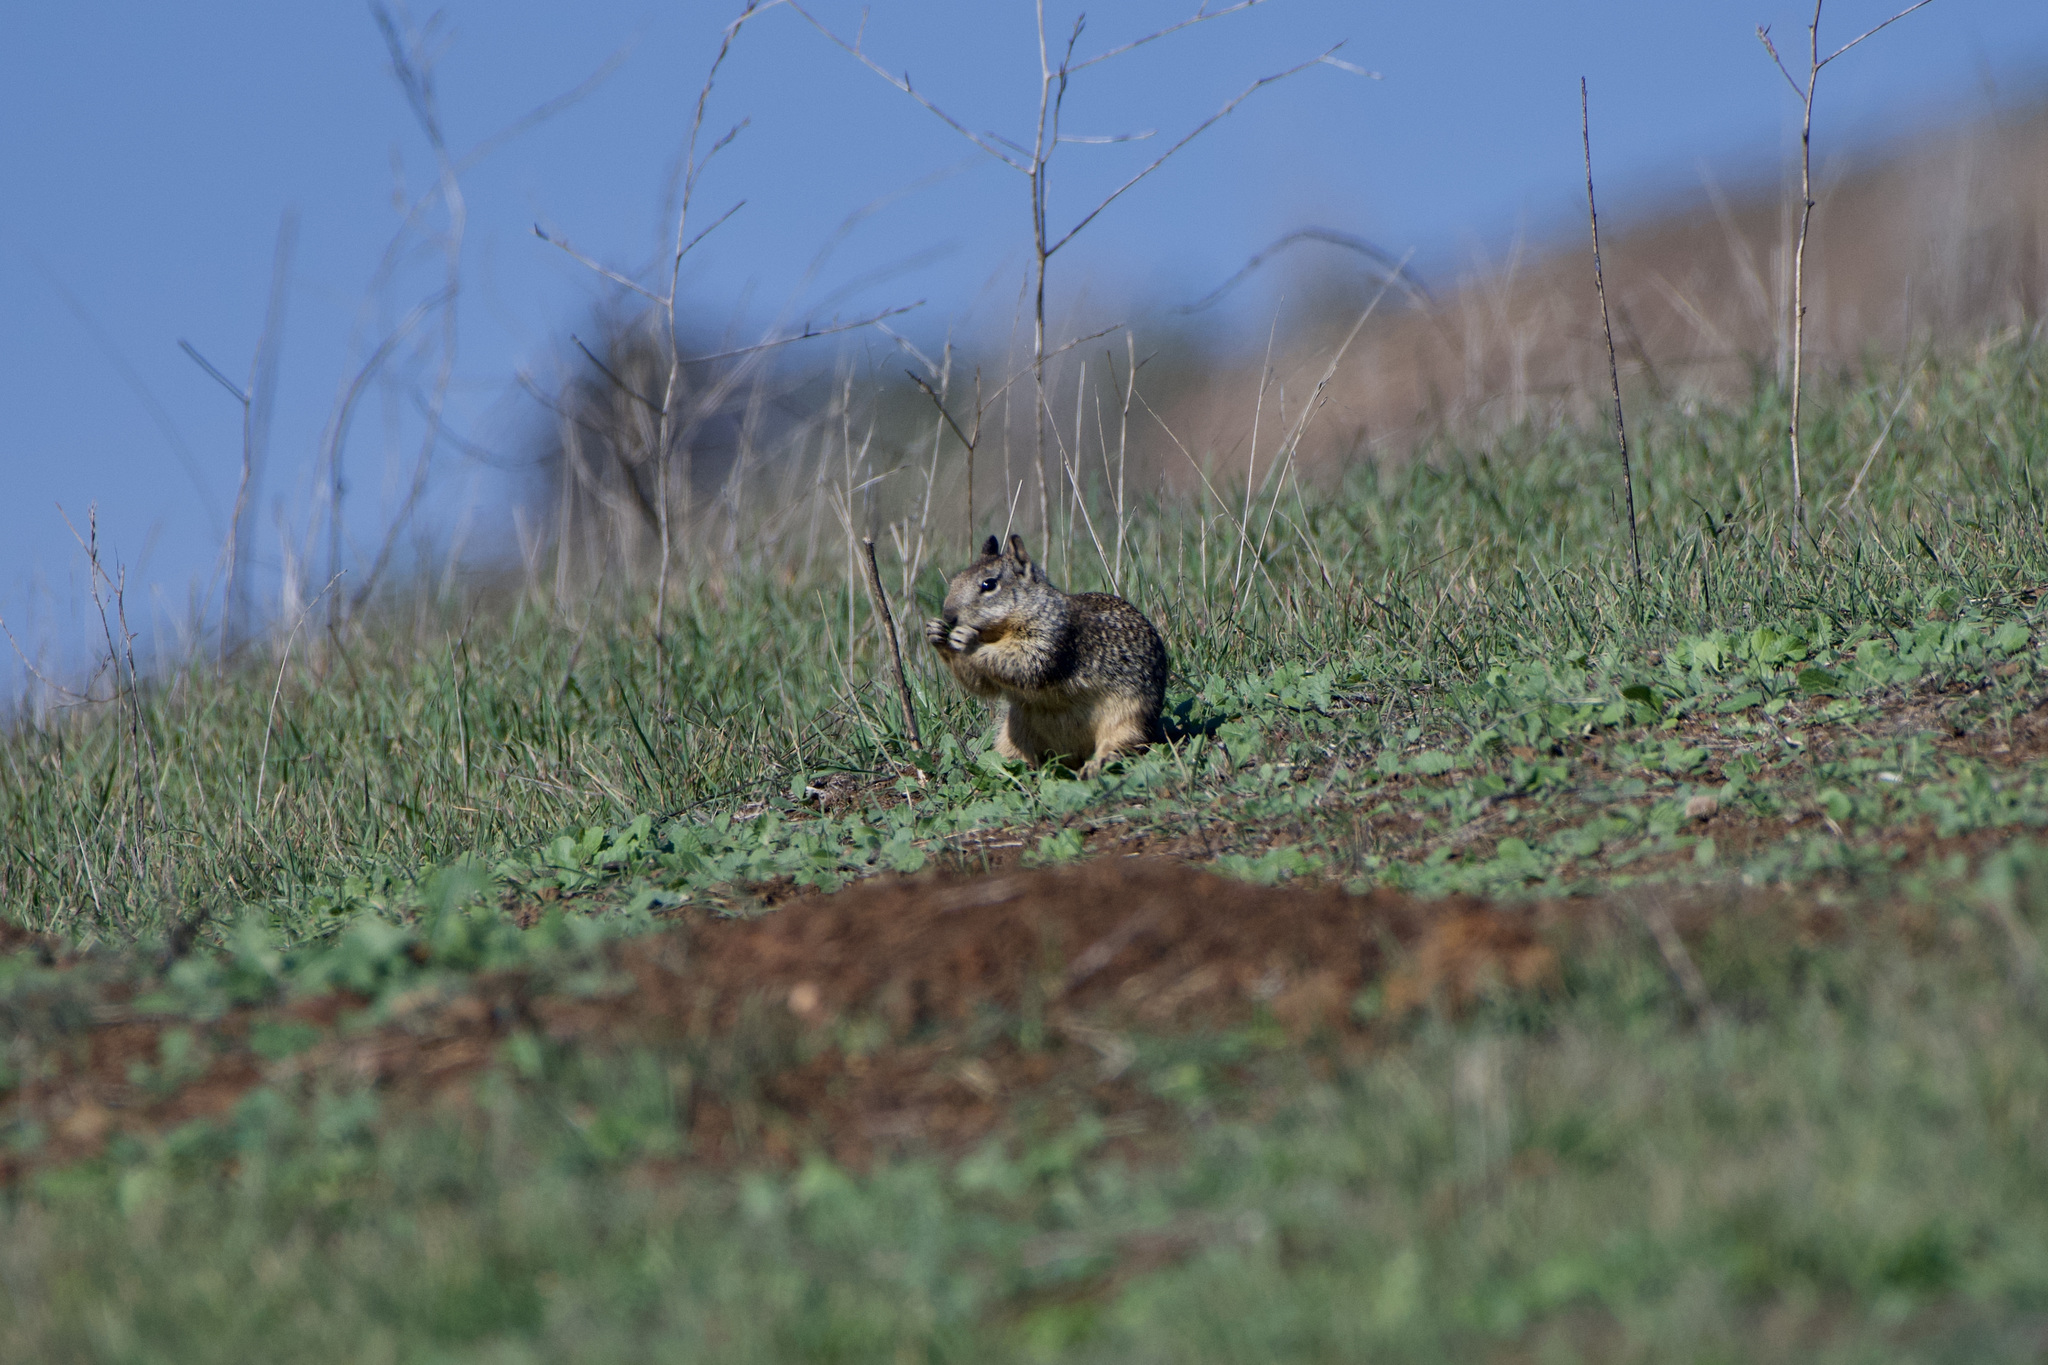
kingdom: Animalia
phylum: Chordata
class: Mammalia
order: Rodentia
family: Sciuridae
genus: Otospermophilus
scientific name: Otospermophilus beecheyi
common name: California ground squirrel
